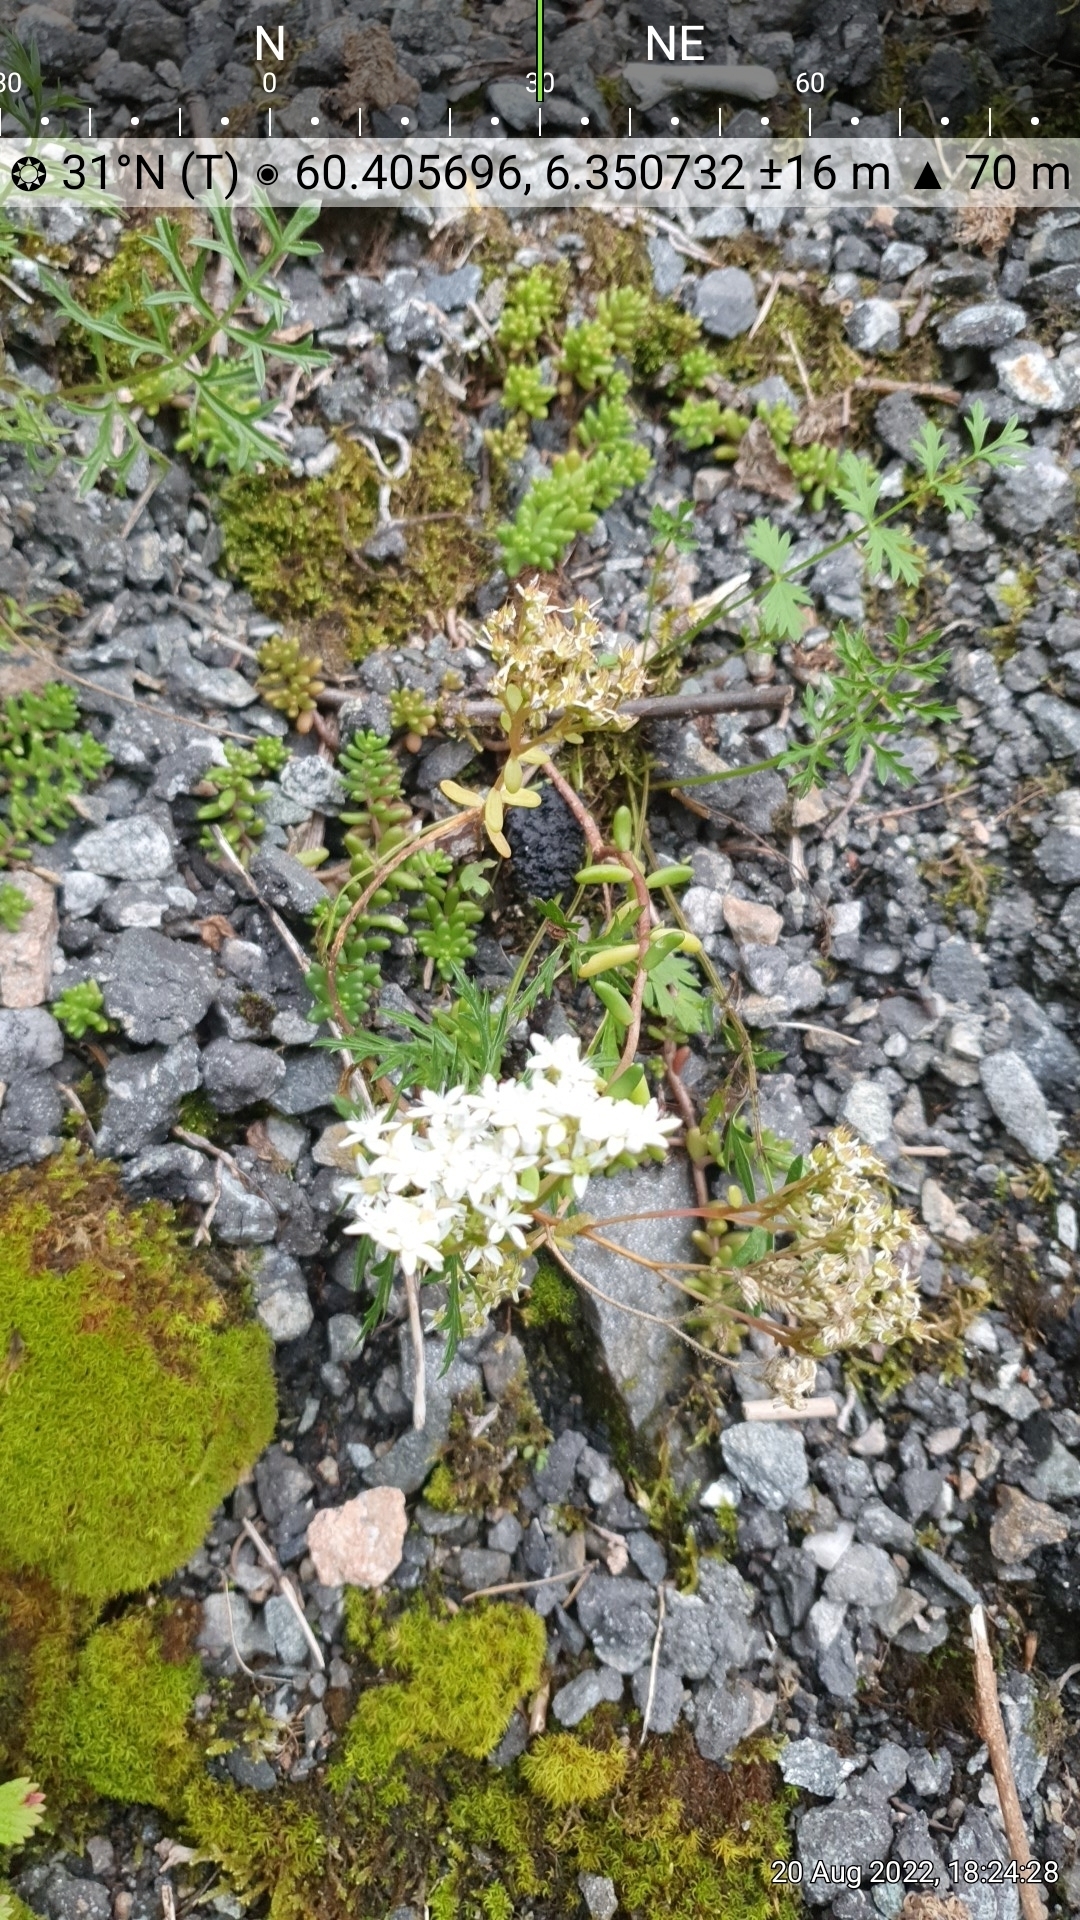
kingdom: Plantae
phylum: Tracheophyta
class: Magnoliopsida
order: Saxifragales
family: Crassulaceae
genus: Sedum
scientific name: Sedum album
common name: White stonecrop
